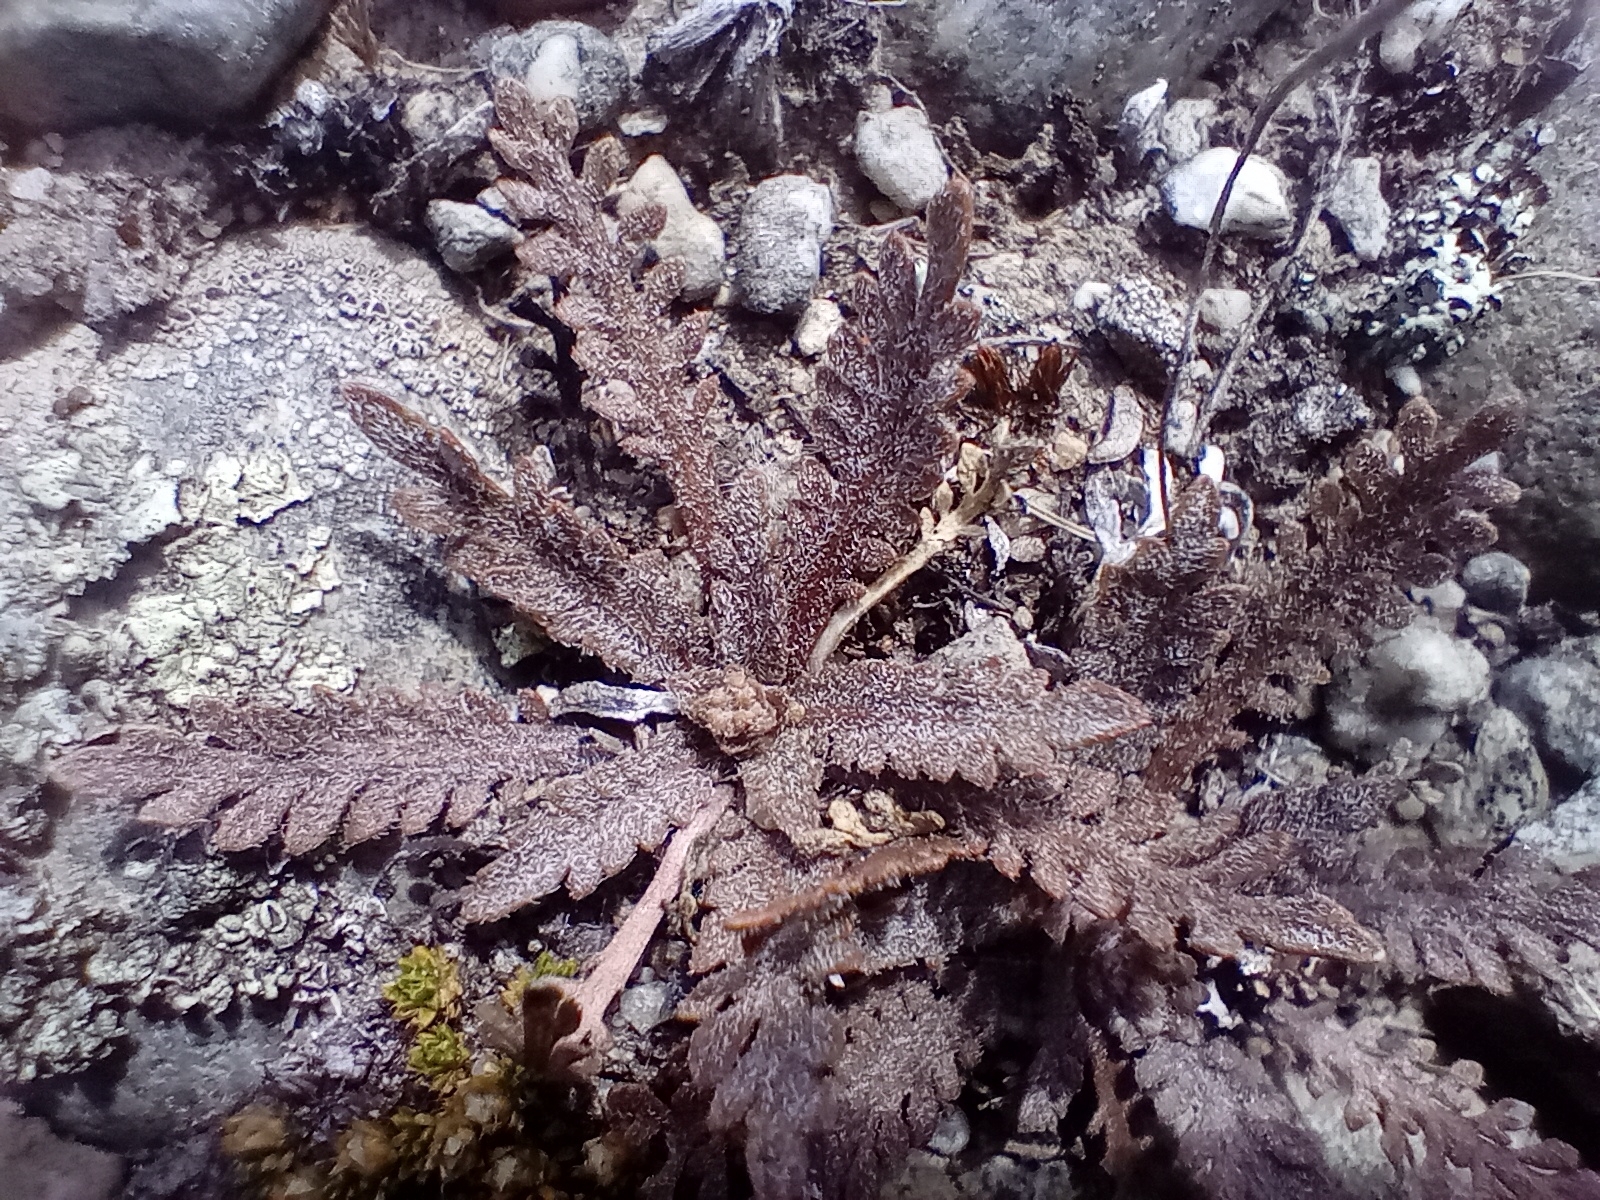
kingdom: Plantae
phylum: Tracheophyta
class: Magnoliopsida
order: Brassicales
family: Brassicaceae
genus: Lepidium
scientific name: Lepidium sisymbrioides
